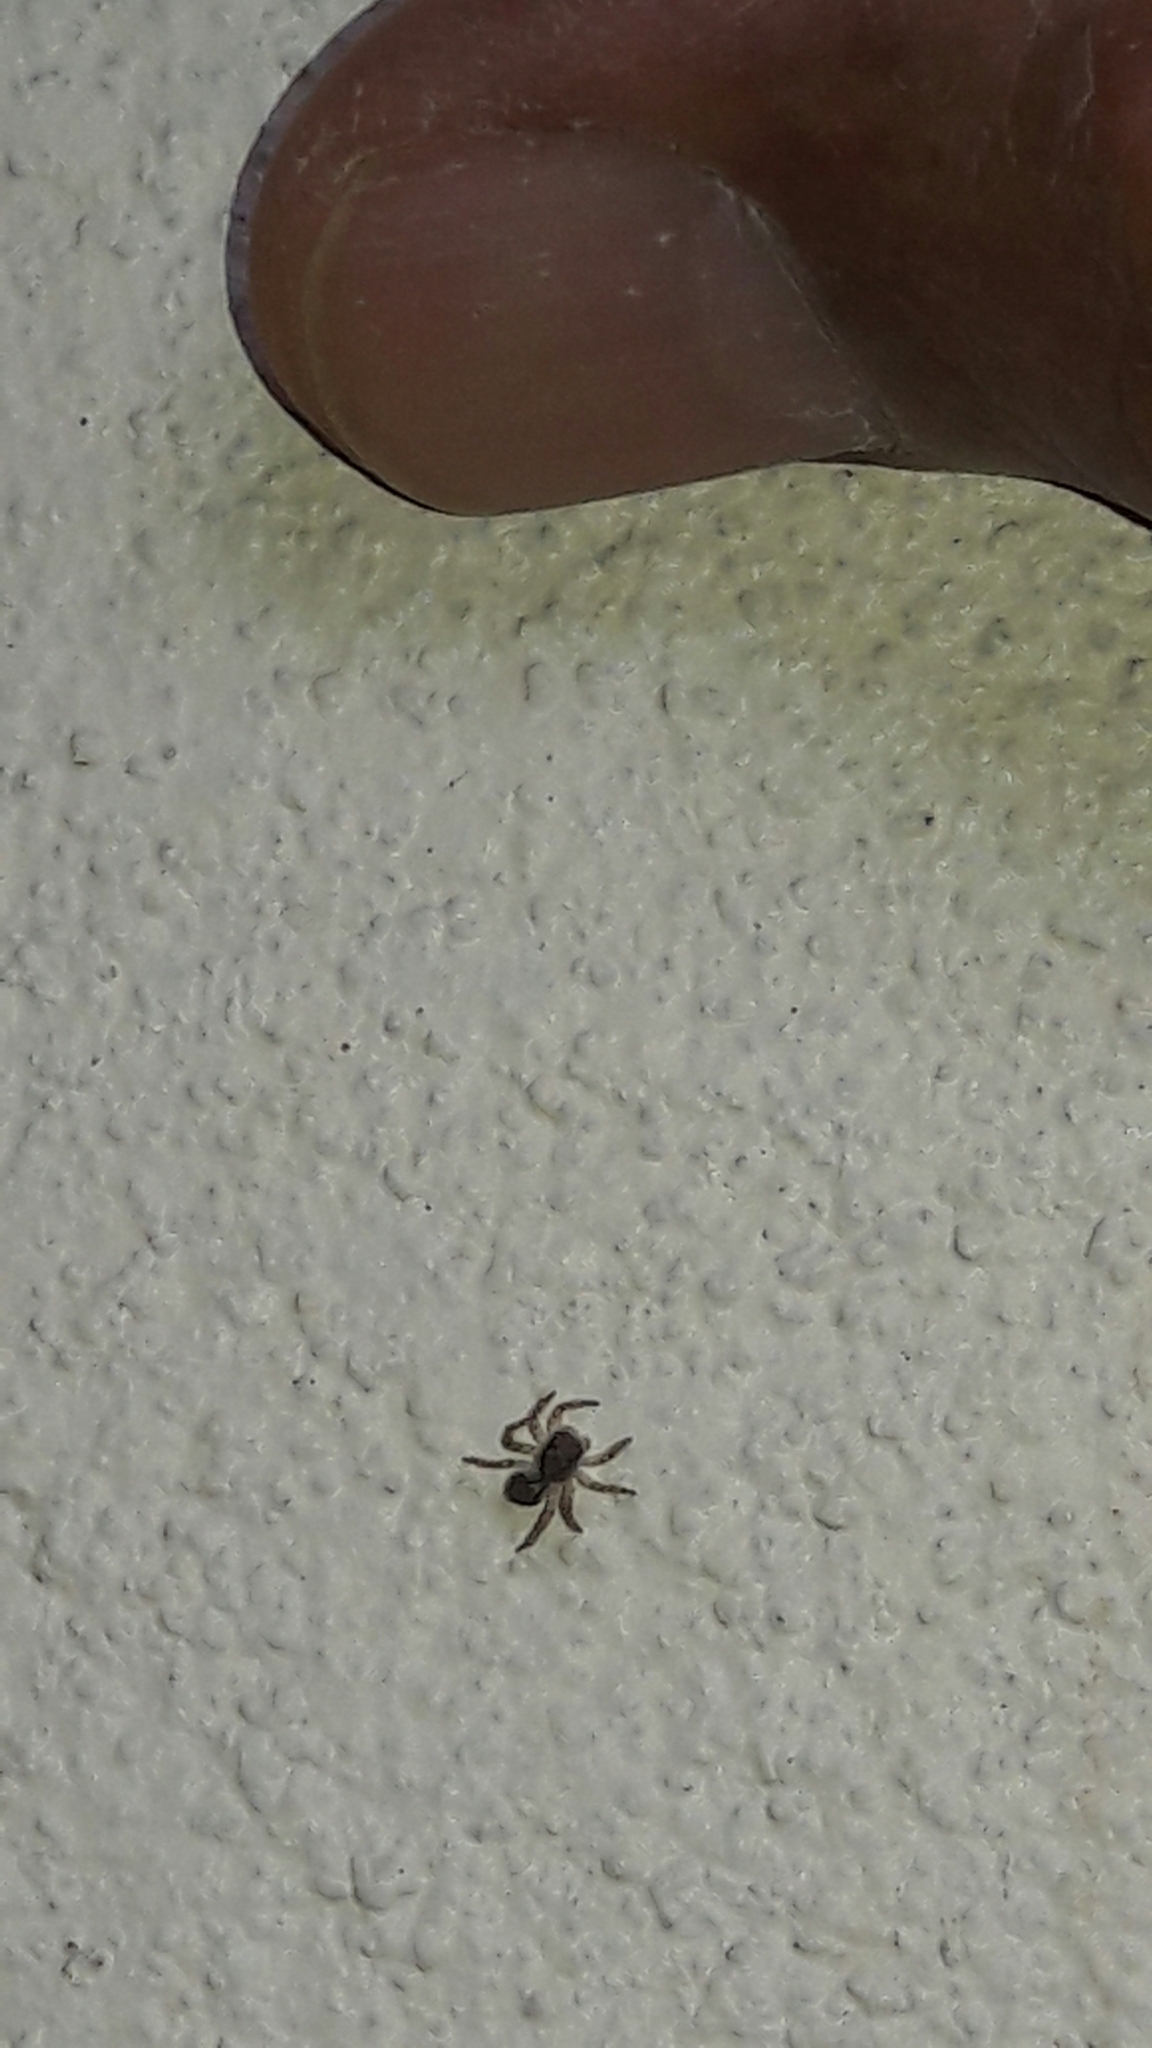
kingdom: Animalia
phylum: Arthropoda
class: Arachnida
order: Araneae
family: Salticidae
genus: Marma
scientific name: Marma nigritarsis
